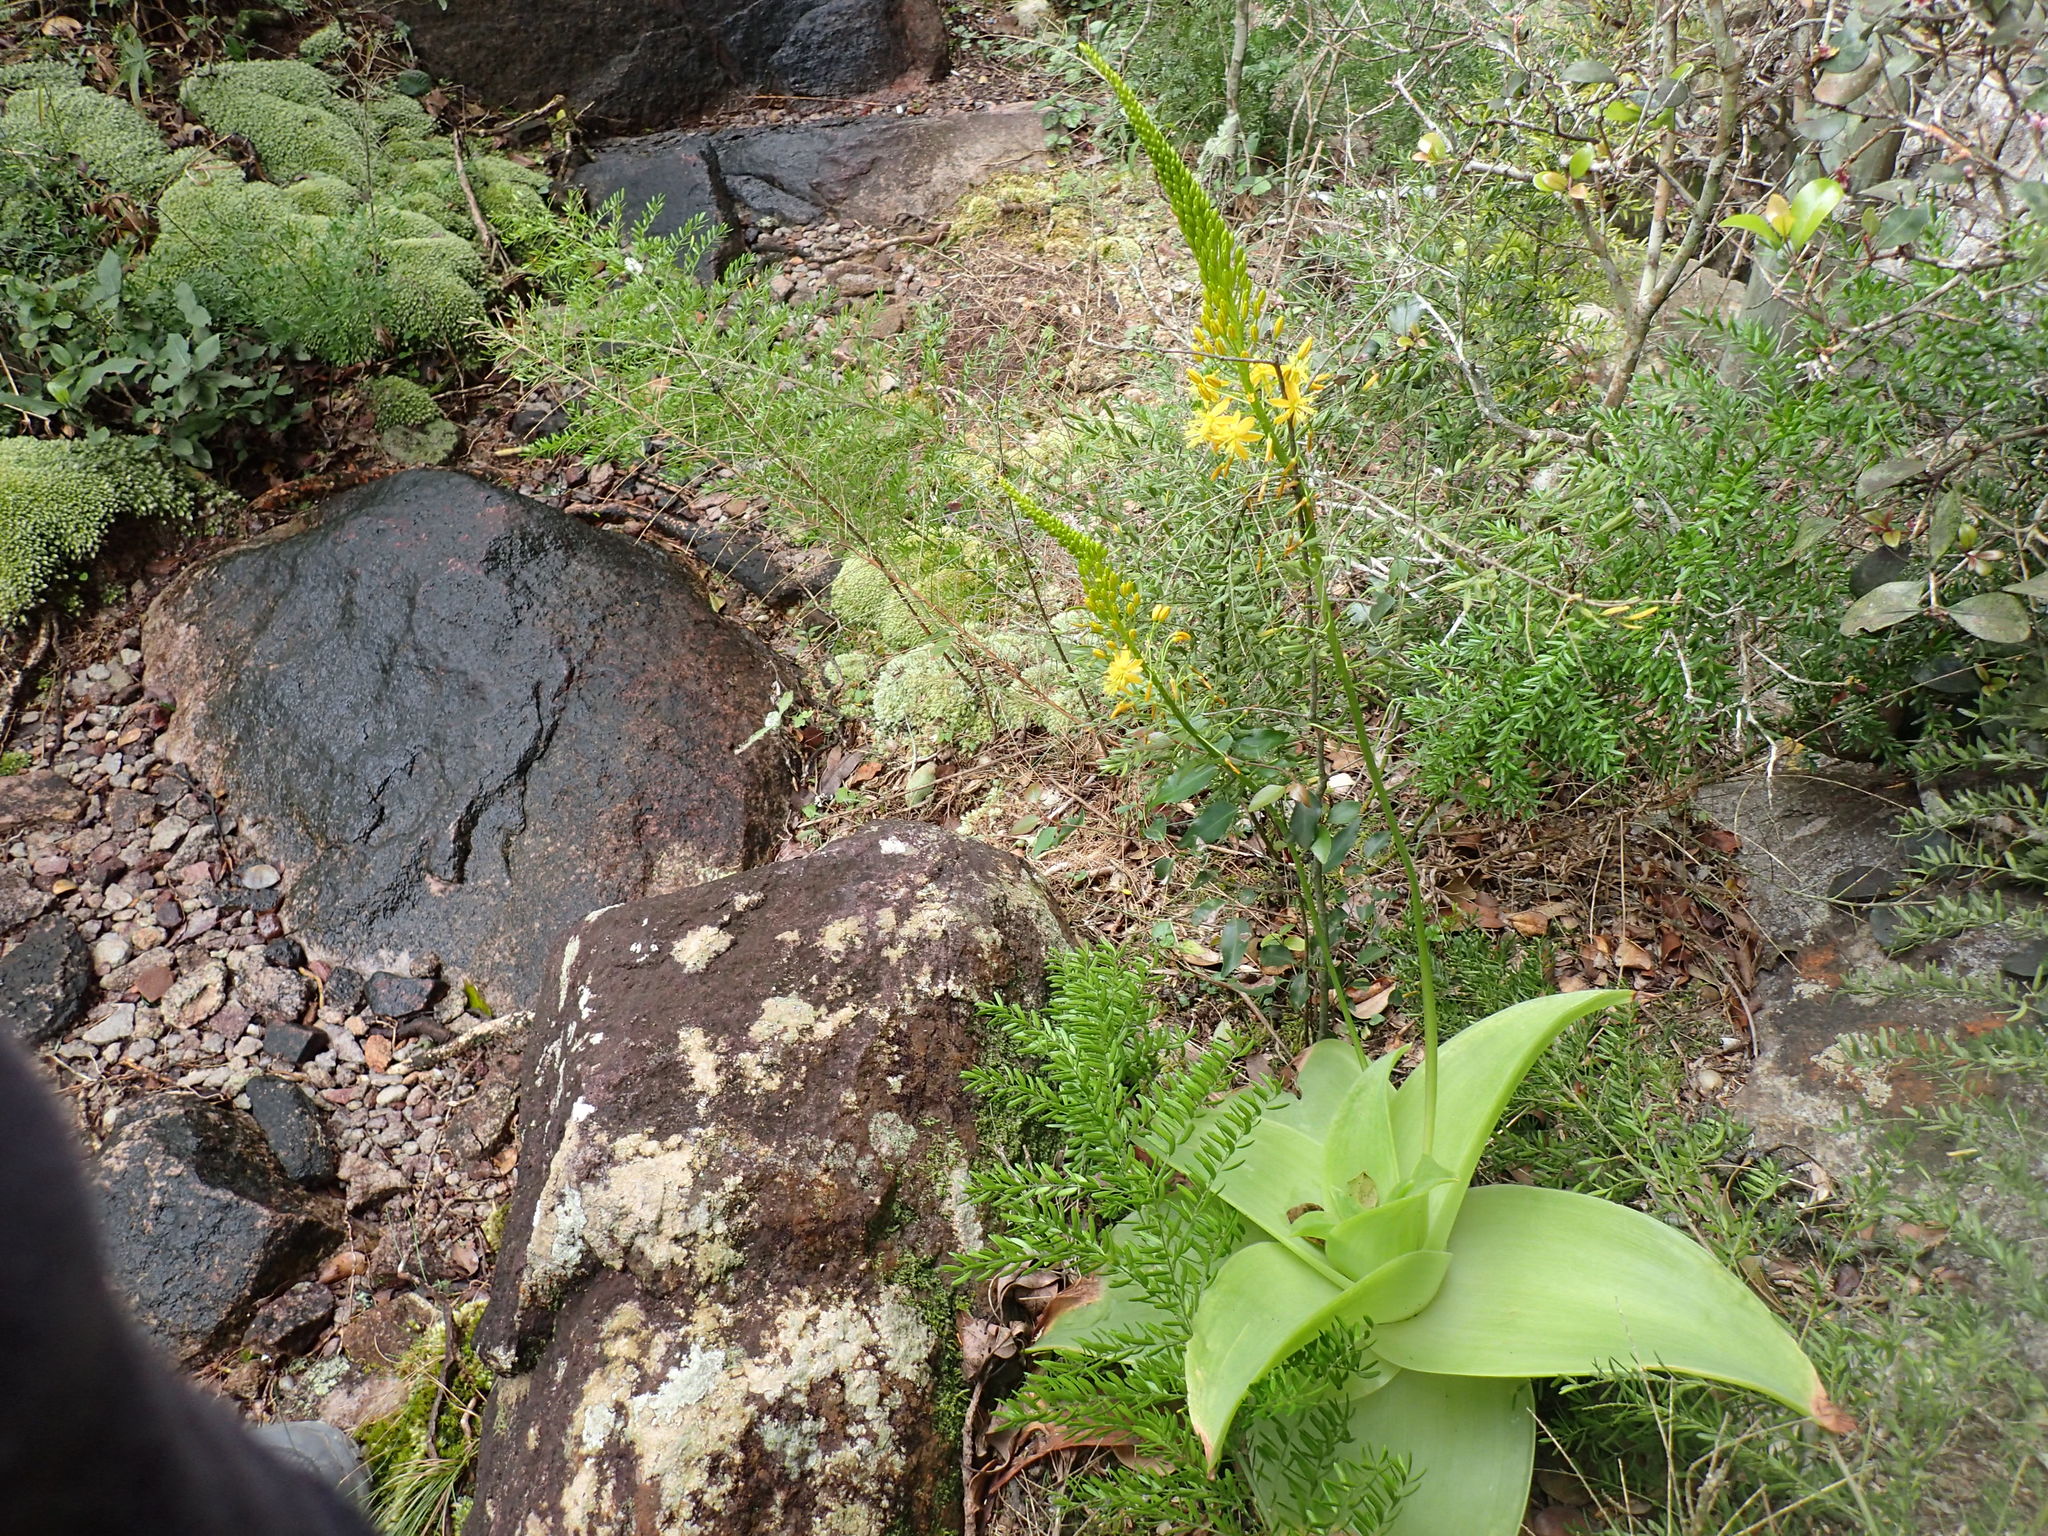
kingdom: Plantae
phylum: Tracheophyta
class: Liliopsida
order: Asparagales
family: Asphodelaceae
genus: Bulbine
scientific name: Bulbine latifolia
